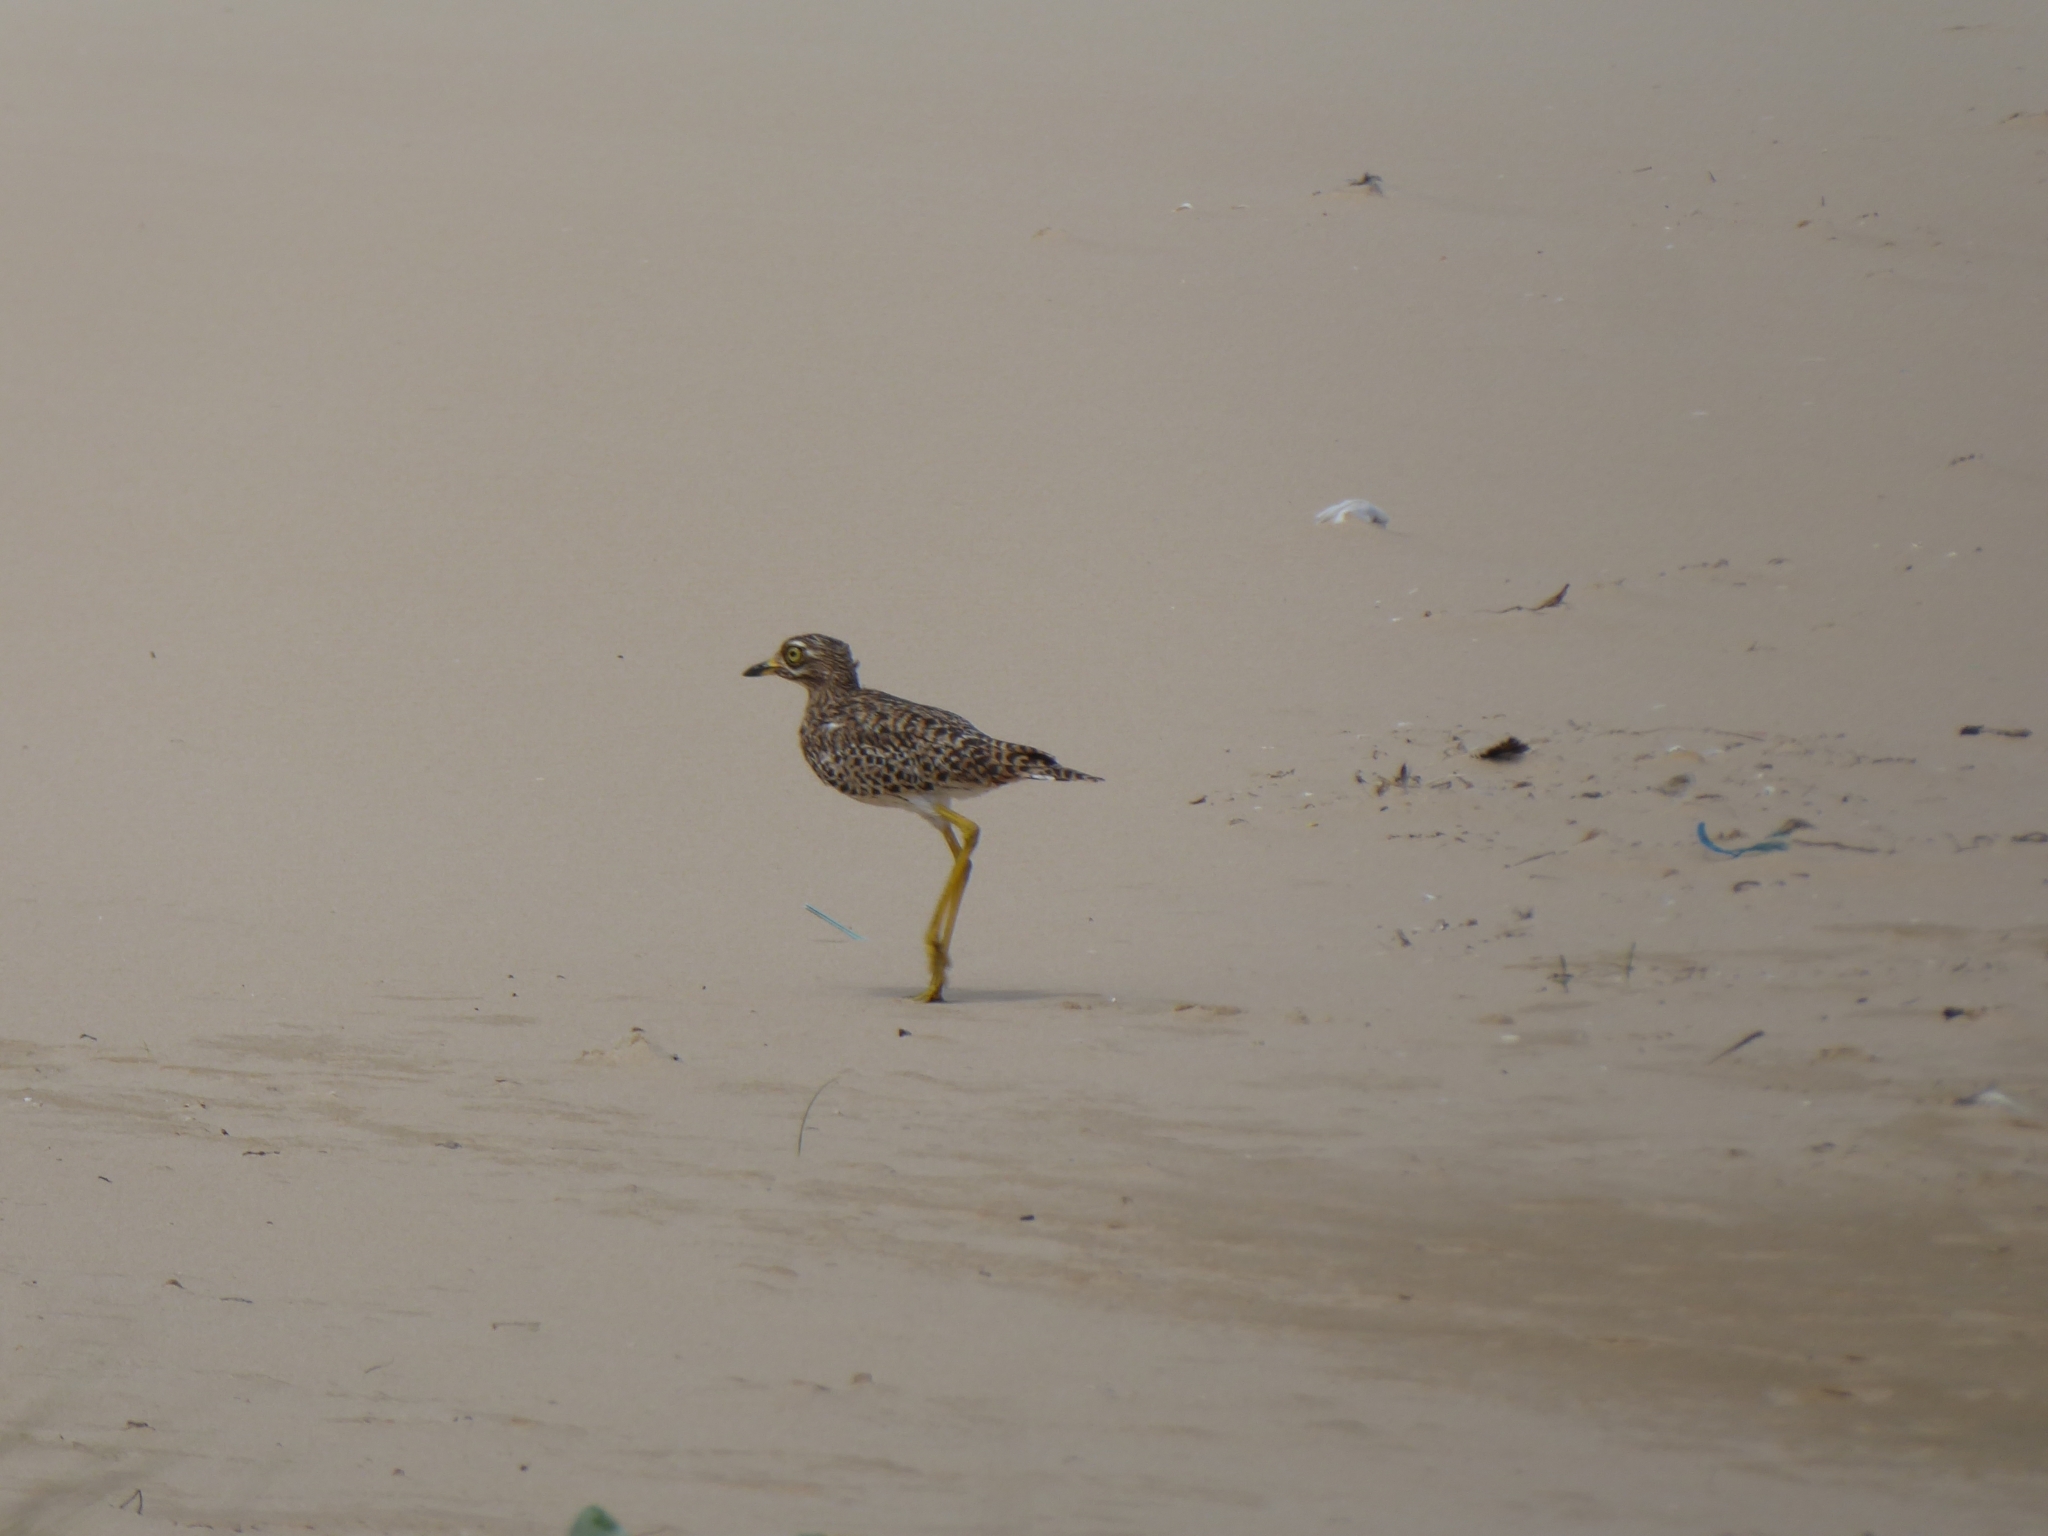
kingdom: Animalia
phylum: Chordata
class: Aves
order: Charadriiformes
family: Burhinidae
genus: Burhinus
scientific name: Burhinus capensis
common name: Spotted thick-knee
